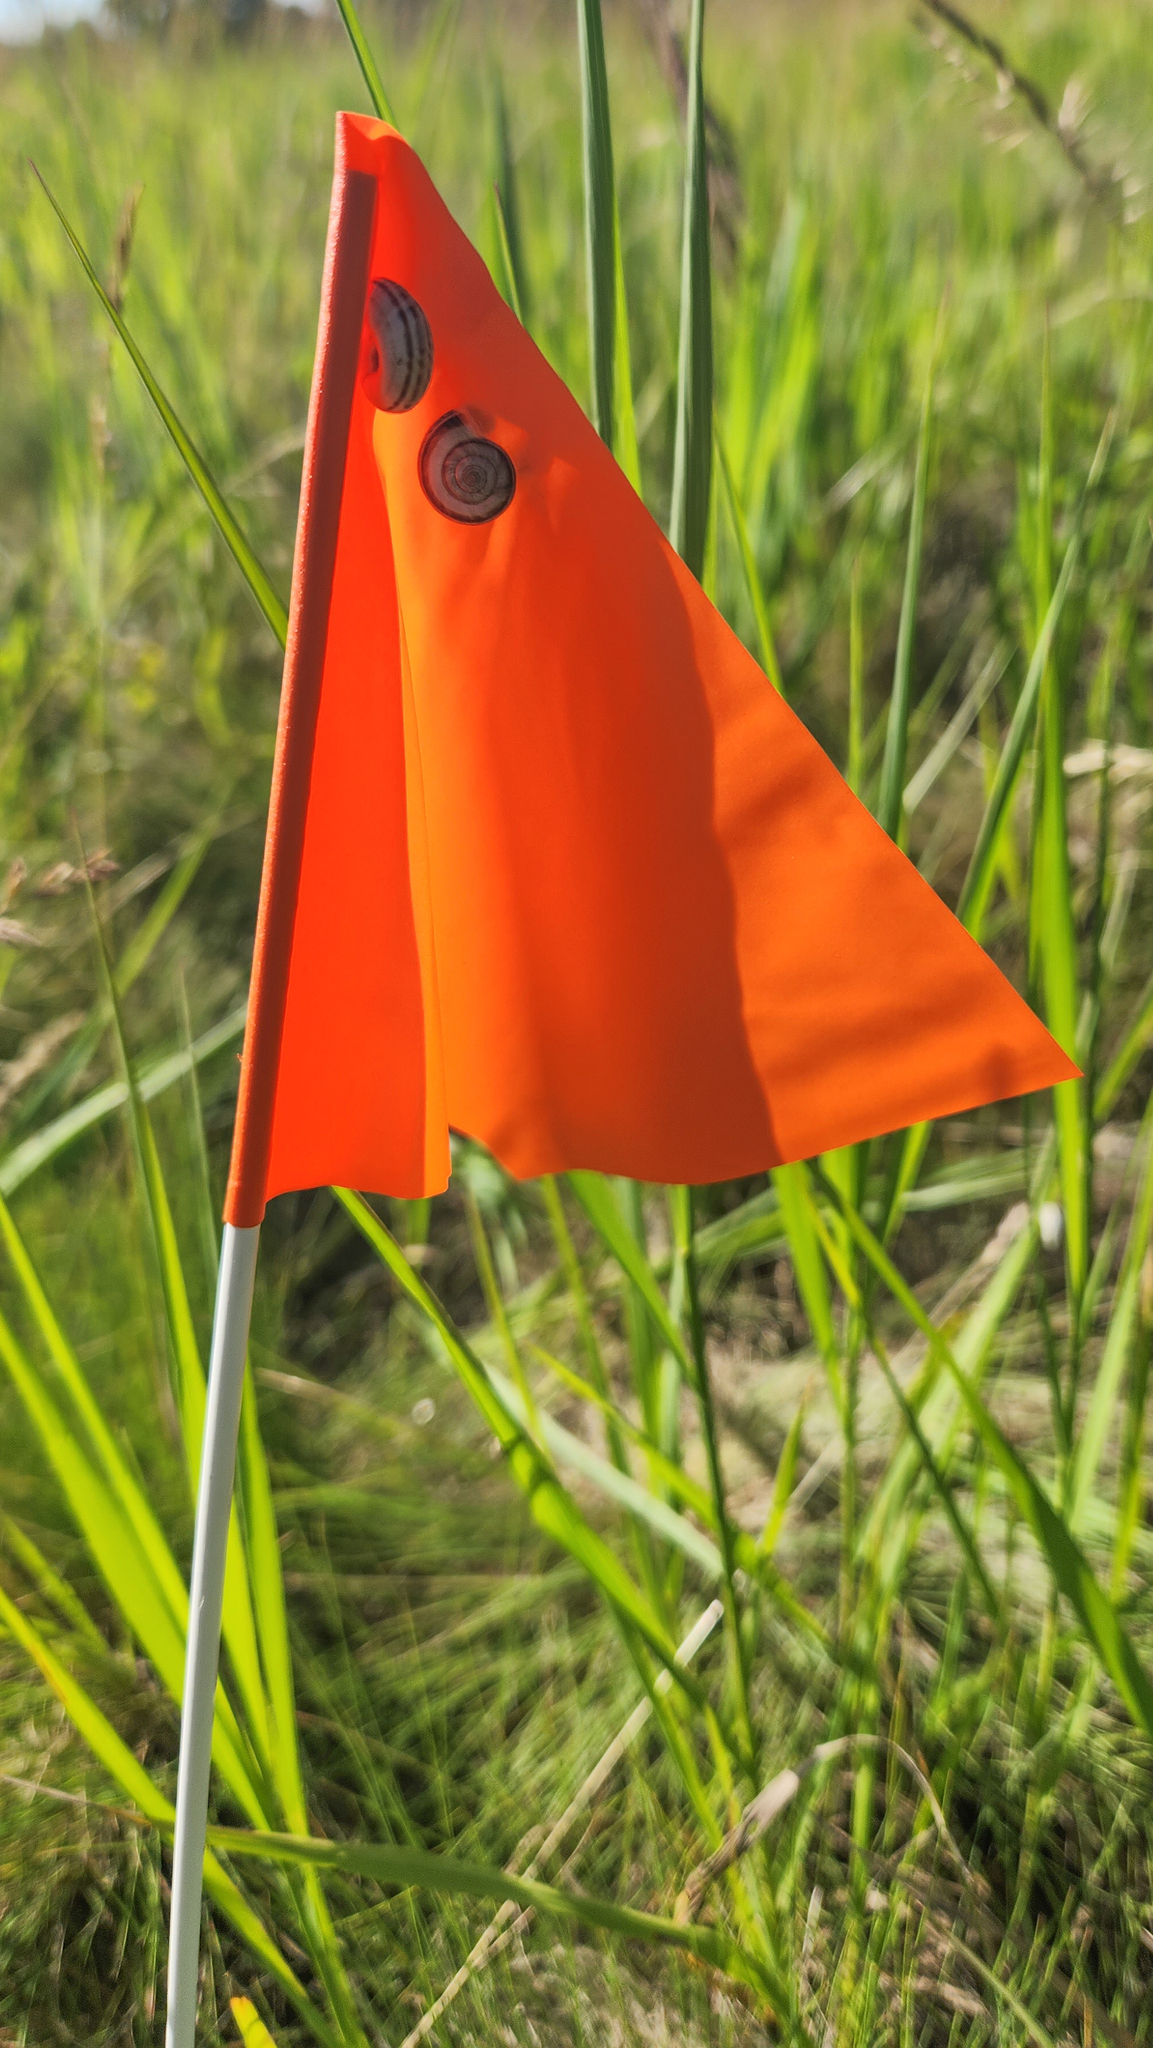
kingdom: Animalia
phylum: Mollusca
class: Gastropoda
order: Stylommatophora
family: Geomitridae
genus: Xerolenta
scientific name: Xerolenta obvia
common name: White heath snail
